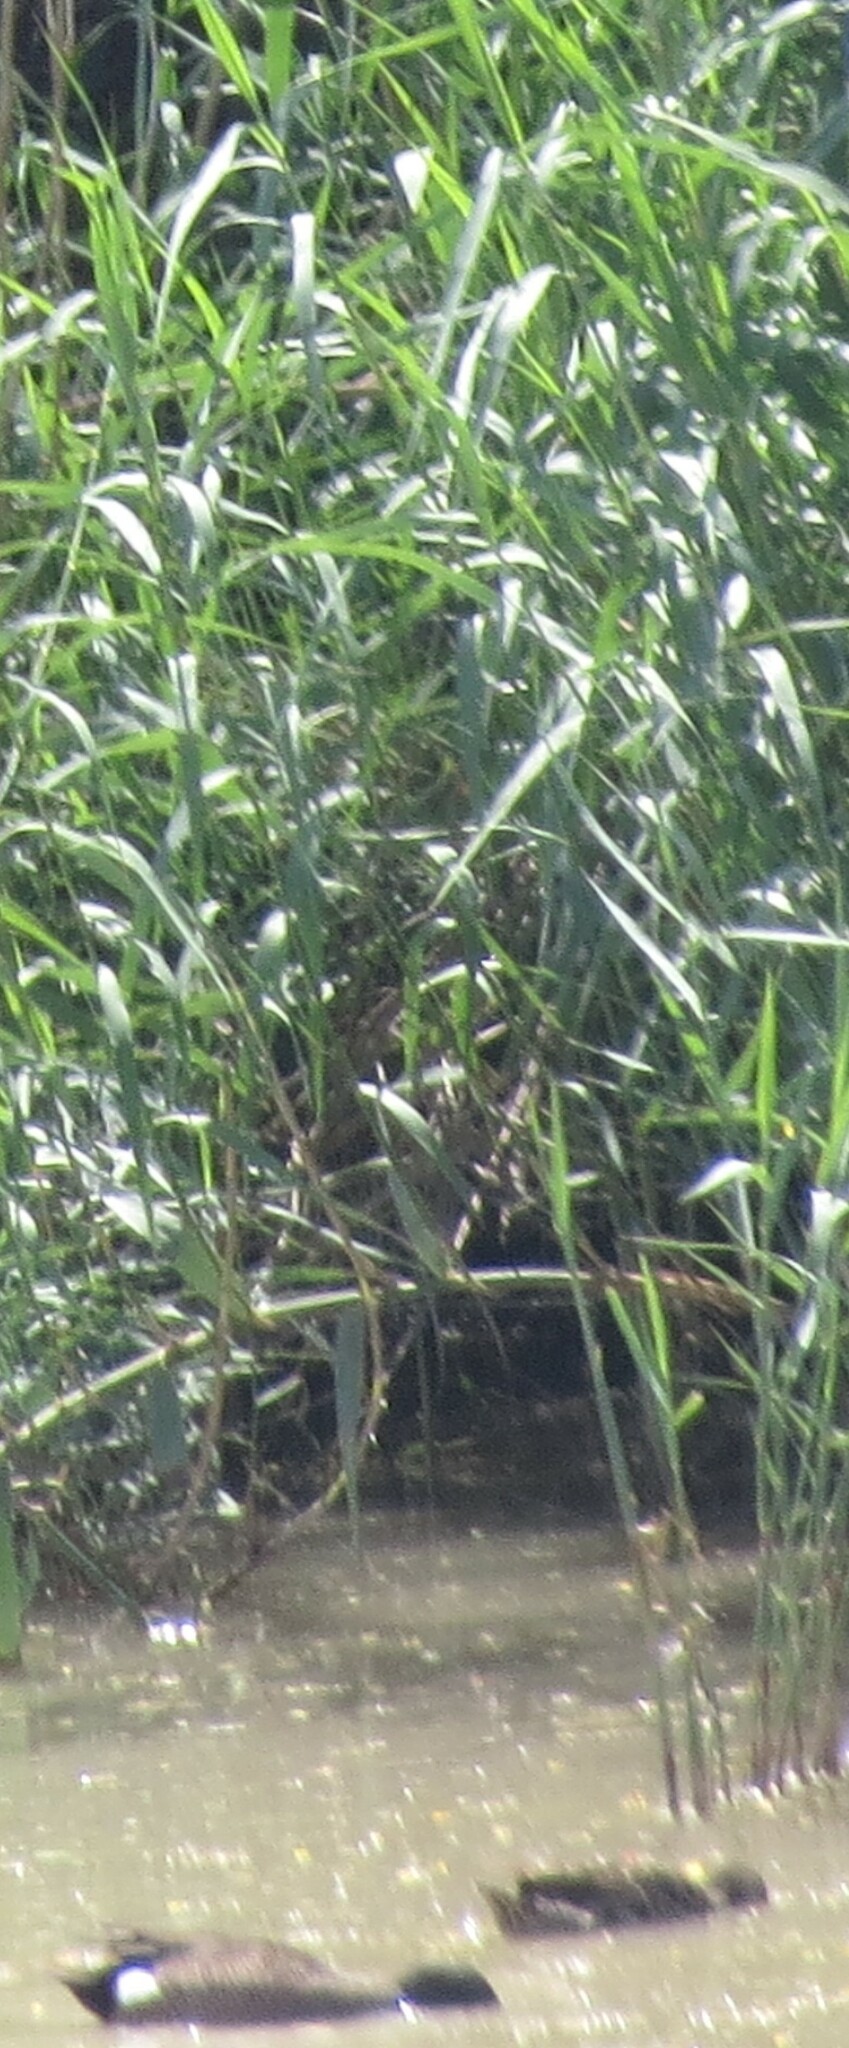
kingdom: Animalia
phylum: Chordata
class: Aves
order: Anseriformes
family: Anatidae
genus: Spatula
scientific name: Spatula discors
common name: Blue-winged teal
